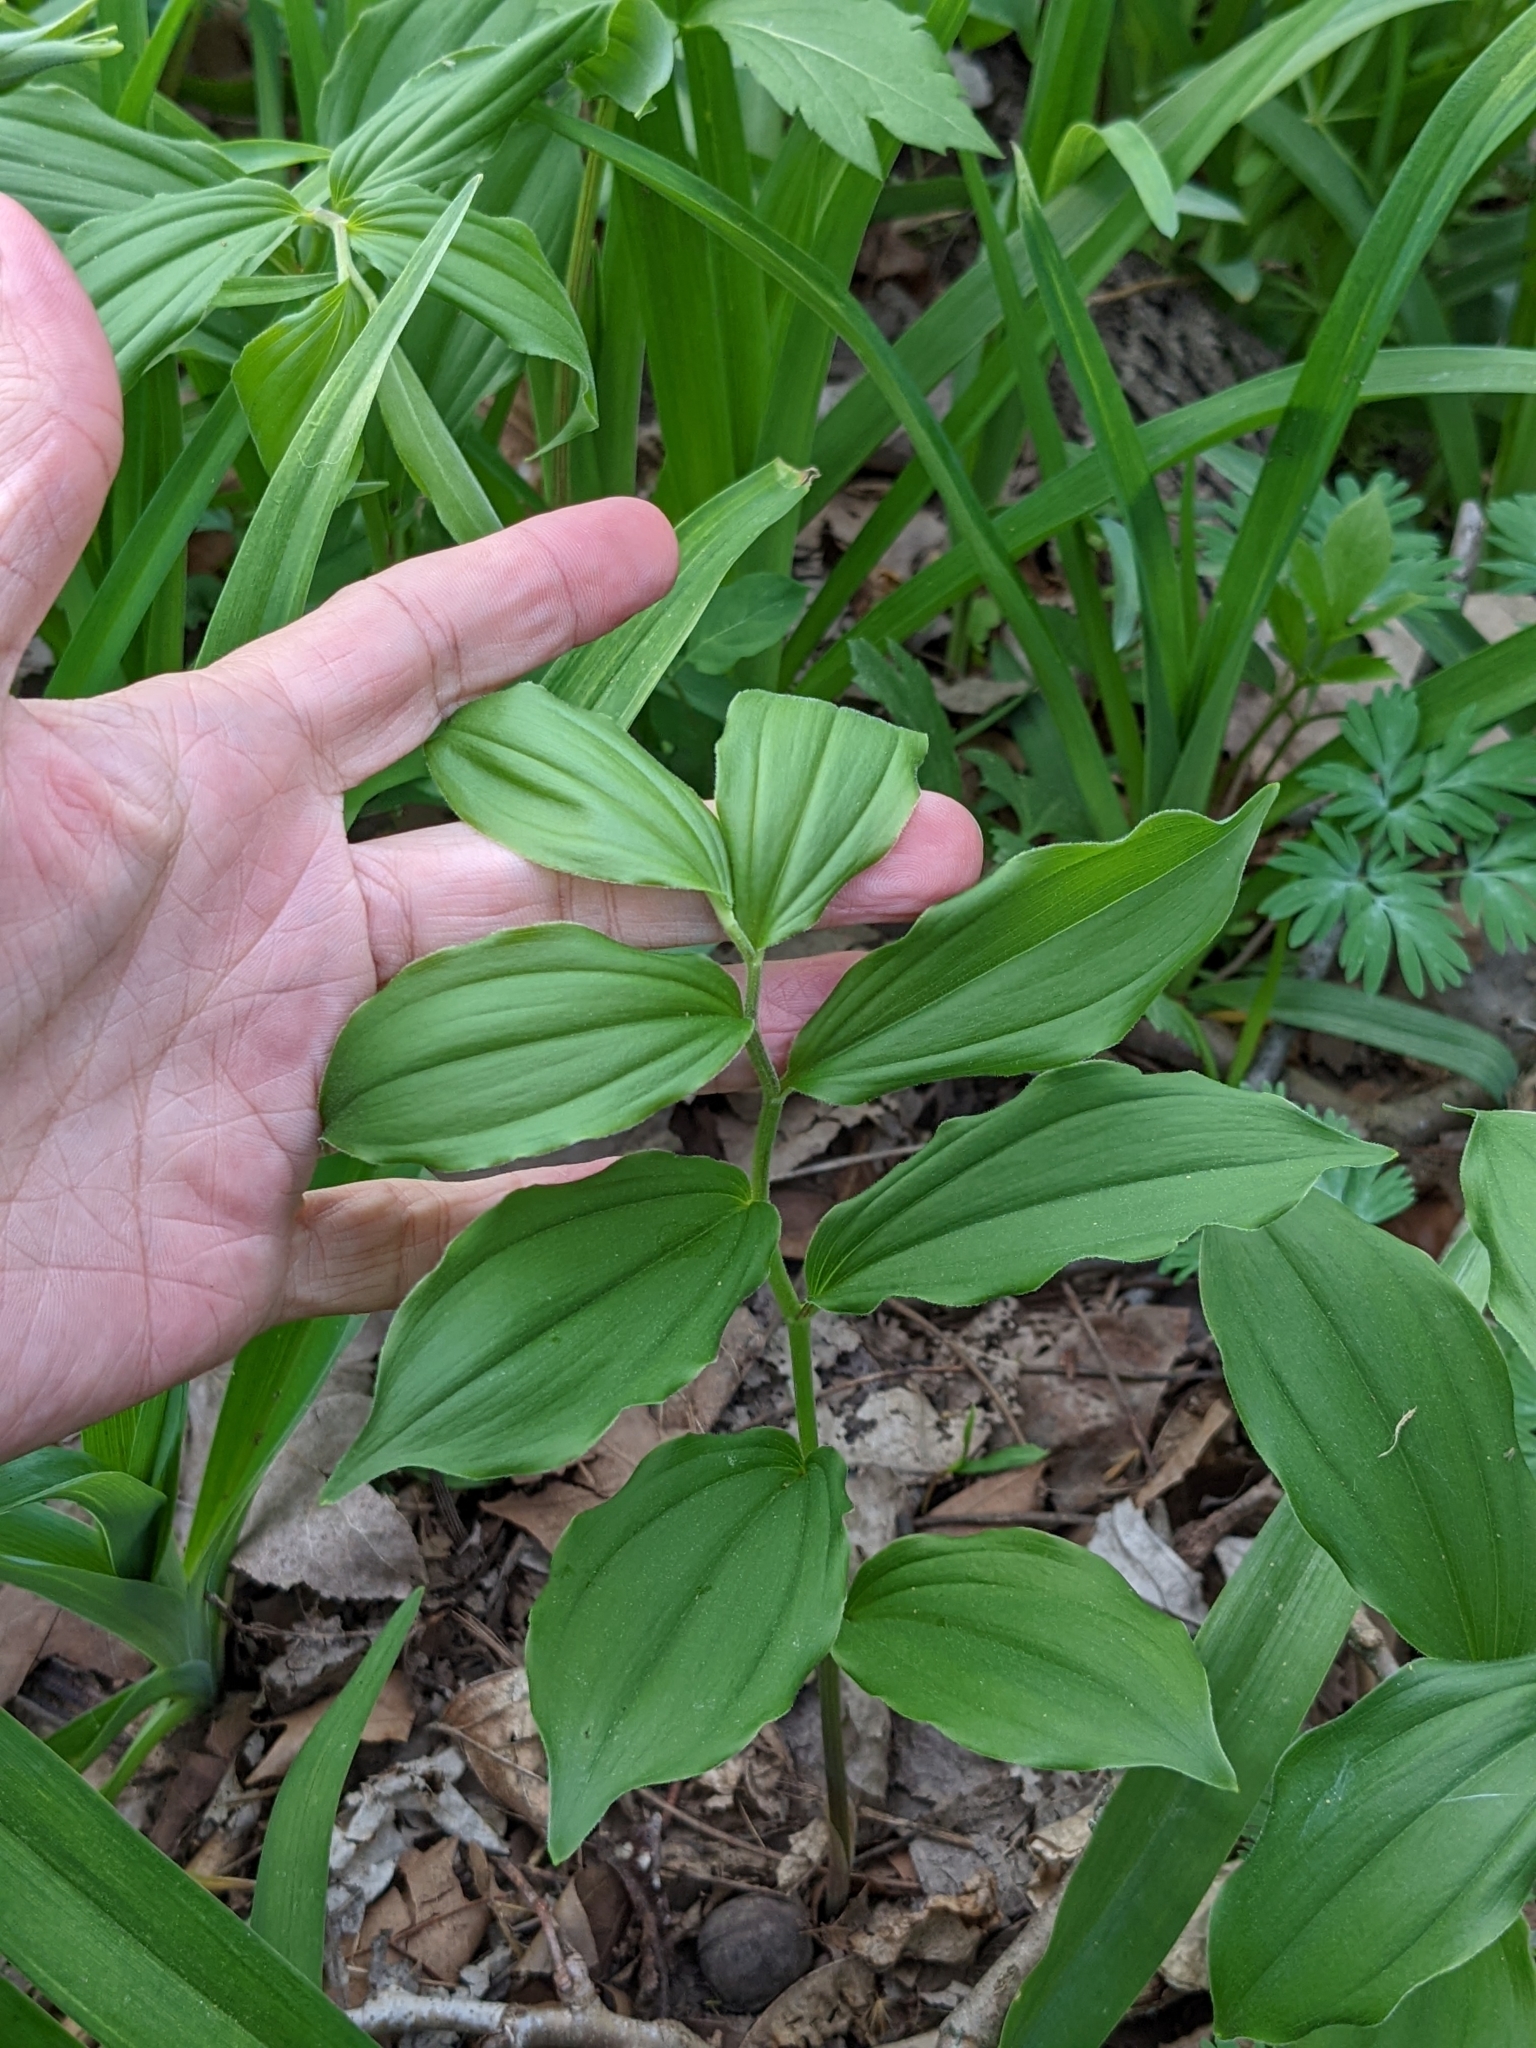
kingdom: Plantae
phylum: Tracheophyta
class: Liliopsida
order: Asparagales
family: Asparagaceae
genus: Maianthemum
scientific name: Maianthemum racemosum
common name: False spikenard
